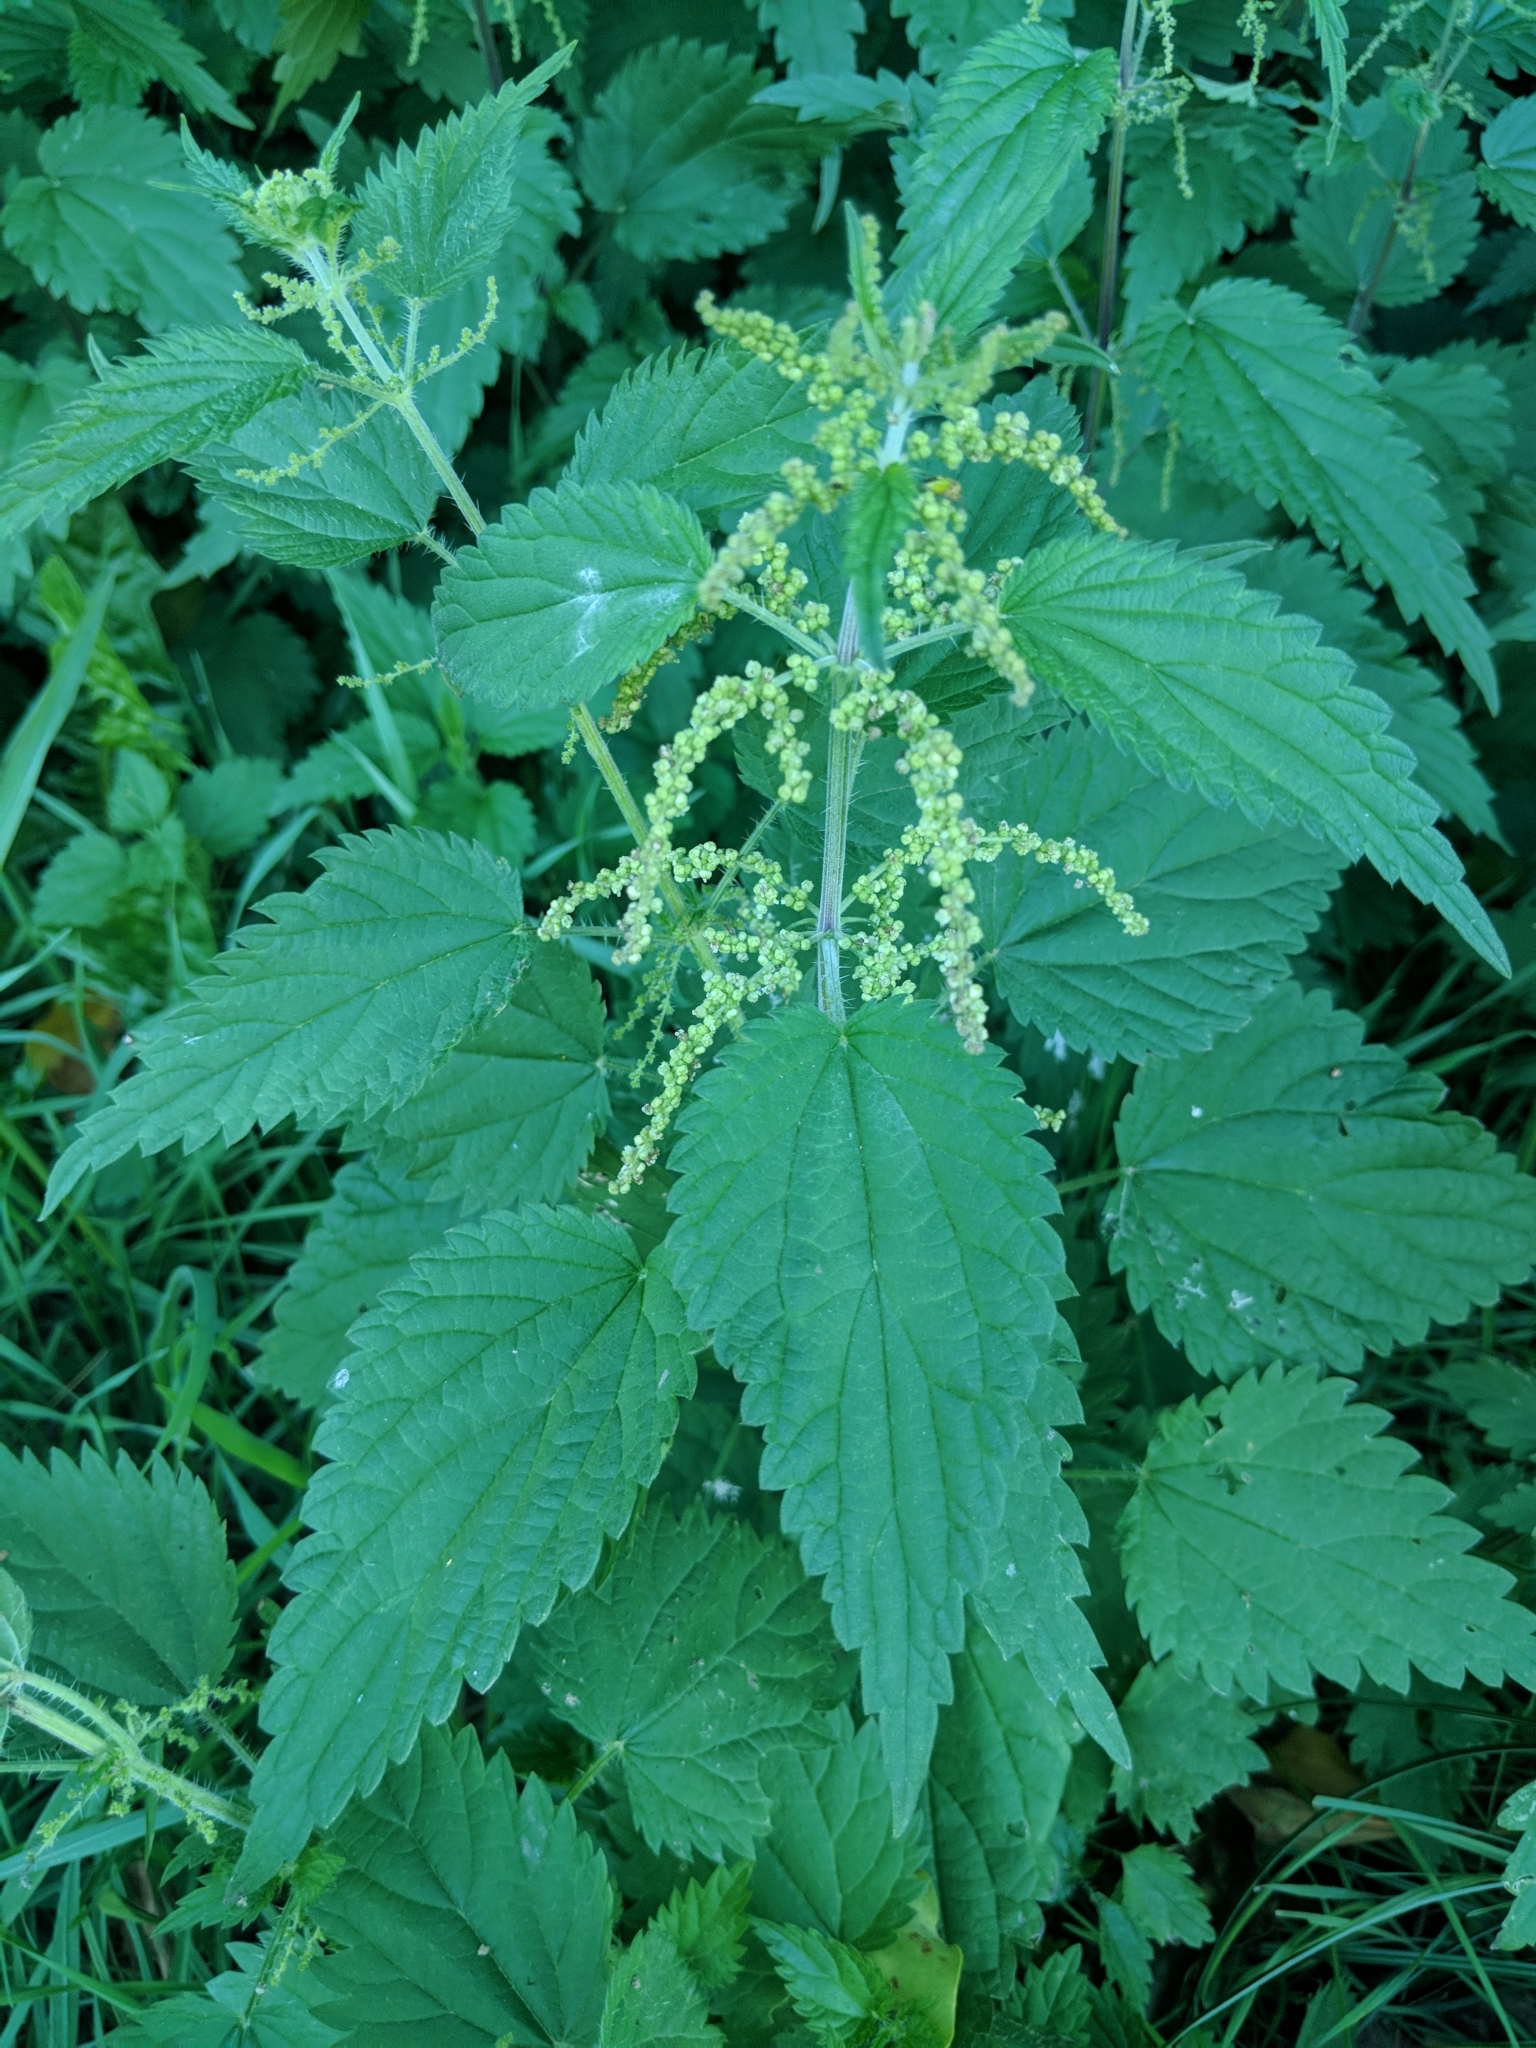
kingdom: Plantae
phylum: Tracheophyta
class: Magnoliopsida
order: Rosales
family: Urticaceae
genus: Urtica
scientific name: Urtica dioica
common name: Common nettle
